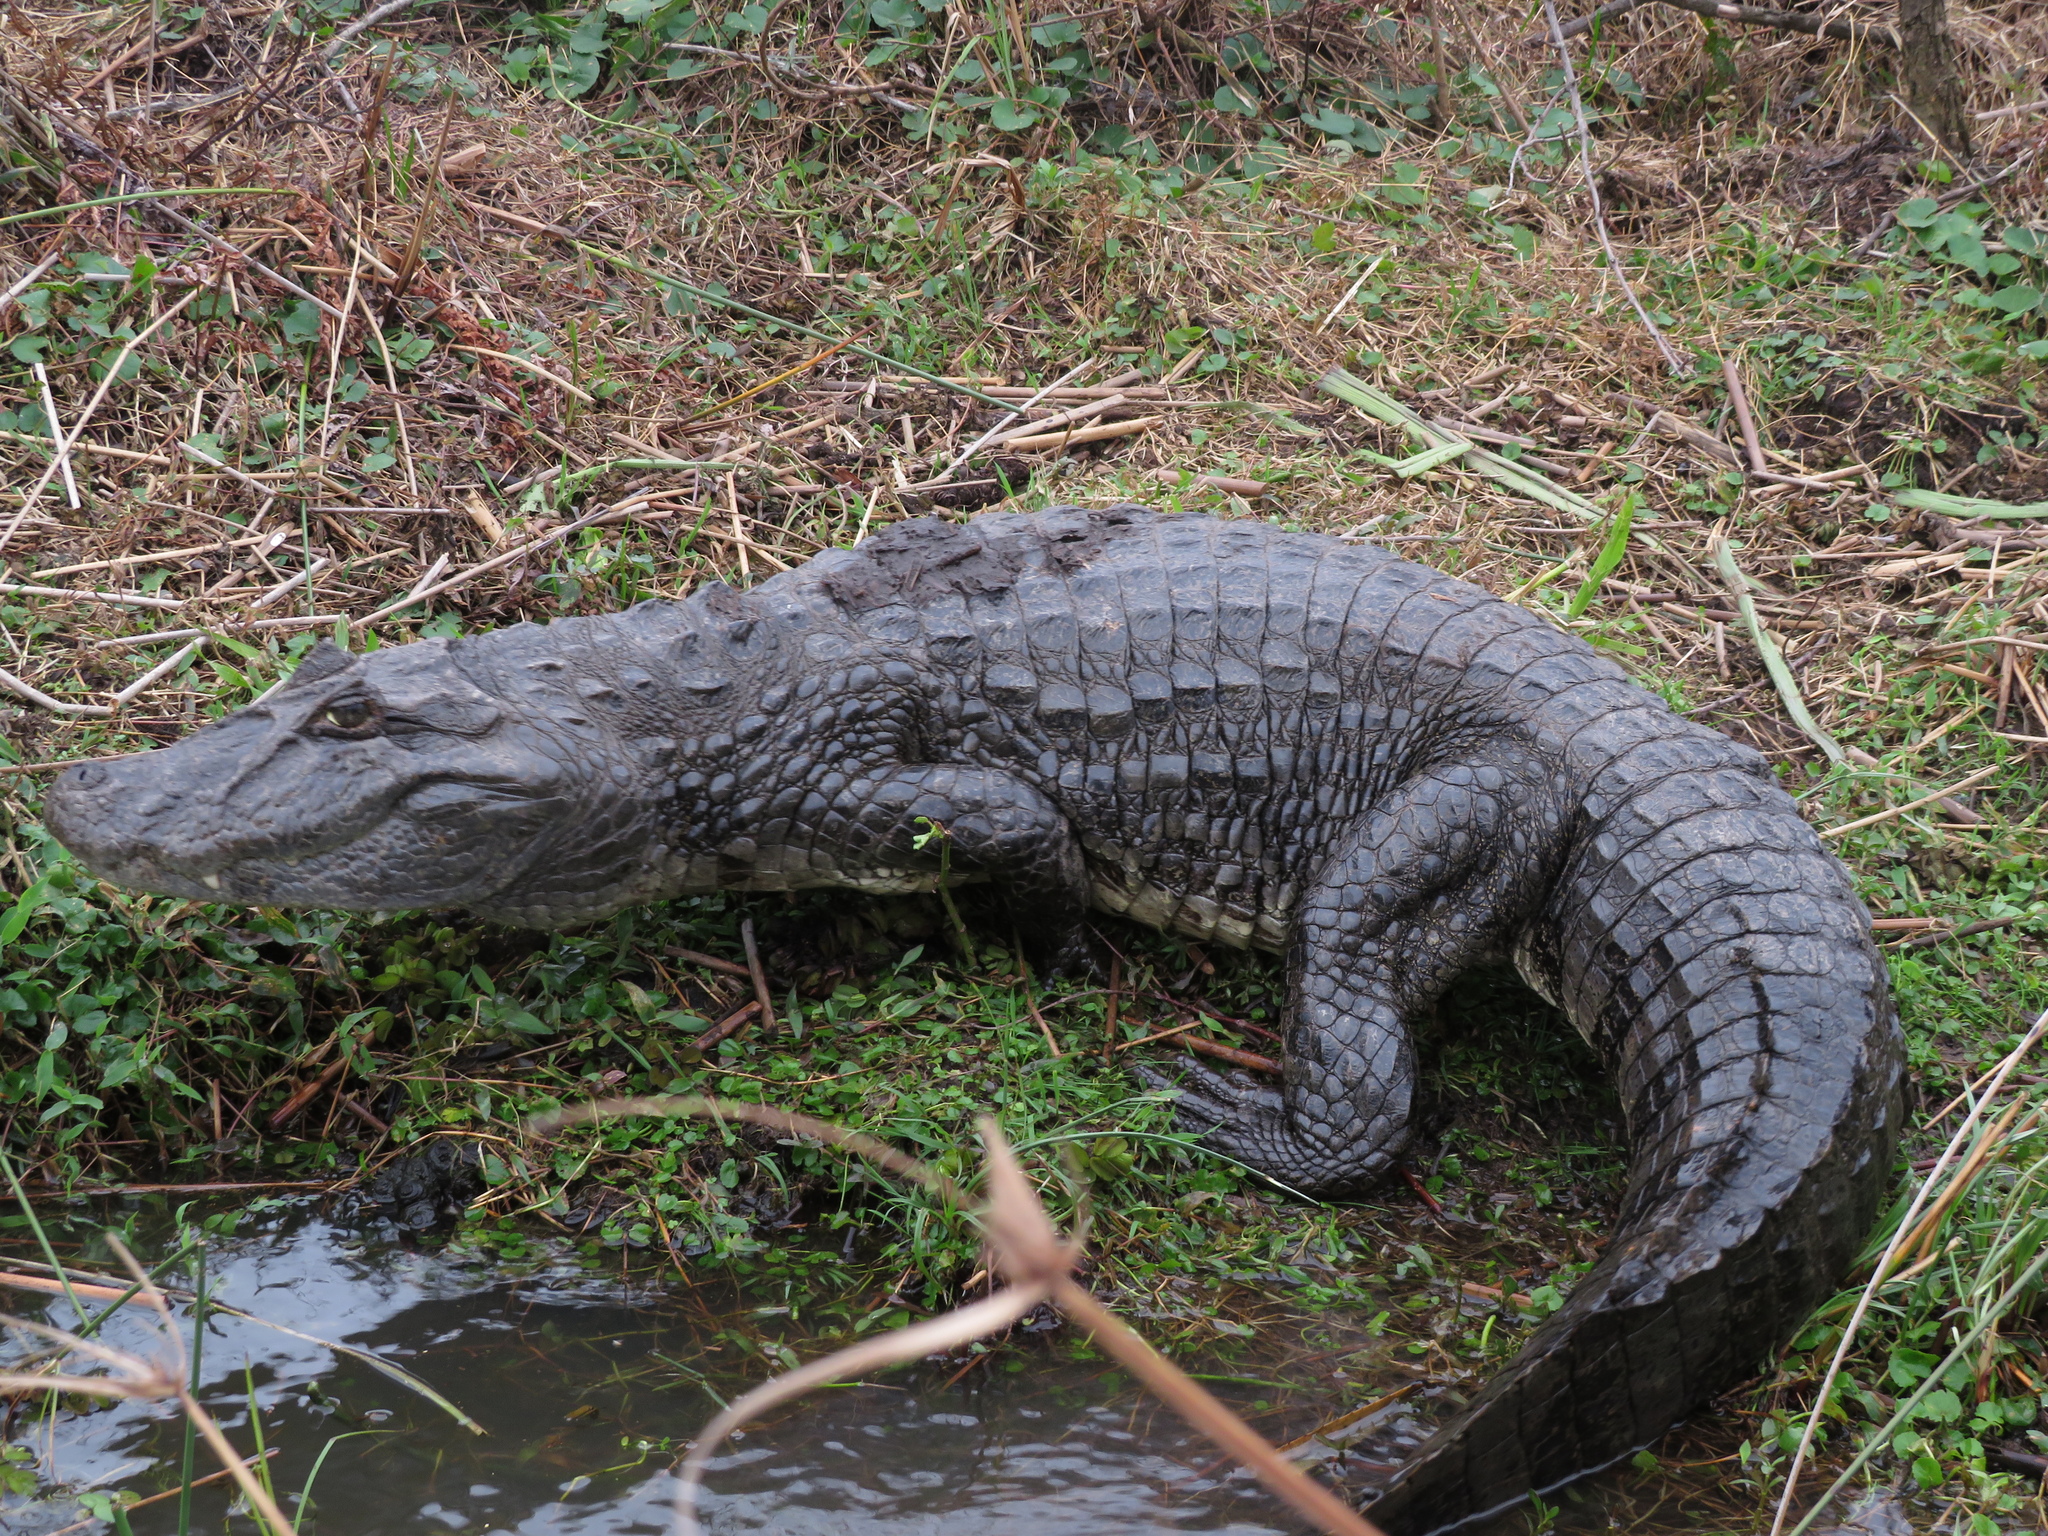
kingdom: Animalia
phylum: Chordata
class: Crocodylia
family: Alligatoridae
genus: Caiman
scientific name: Caiman latirostris
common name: Broad-snouted caiman
